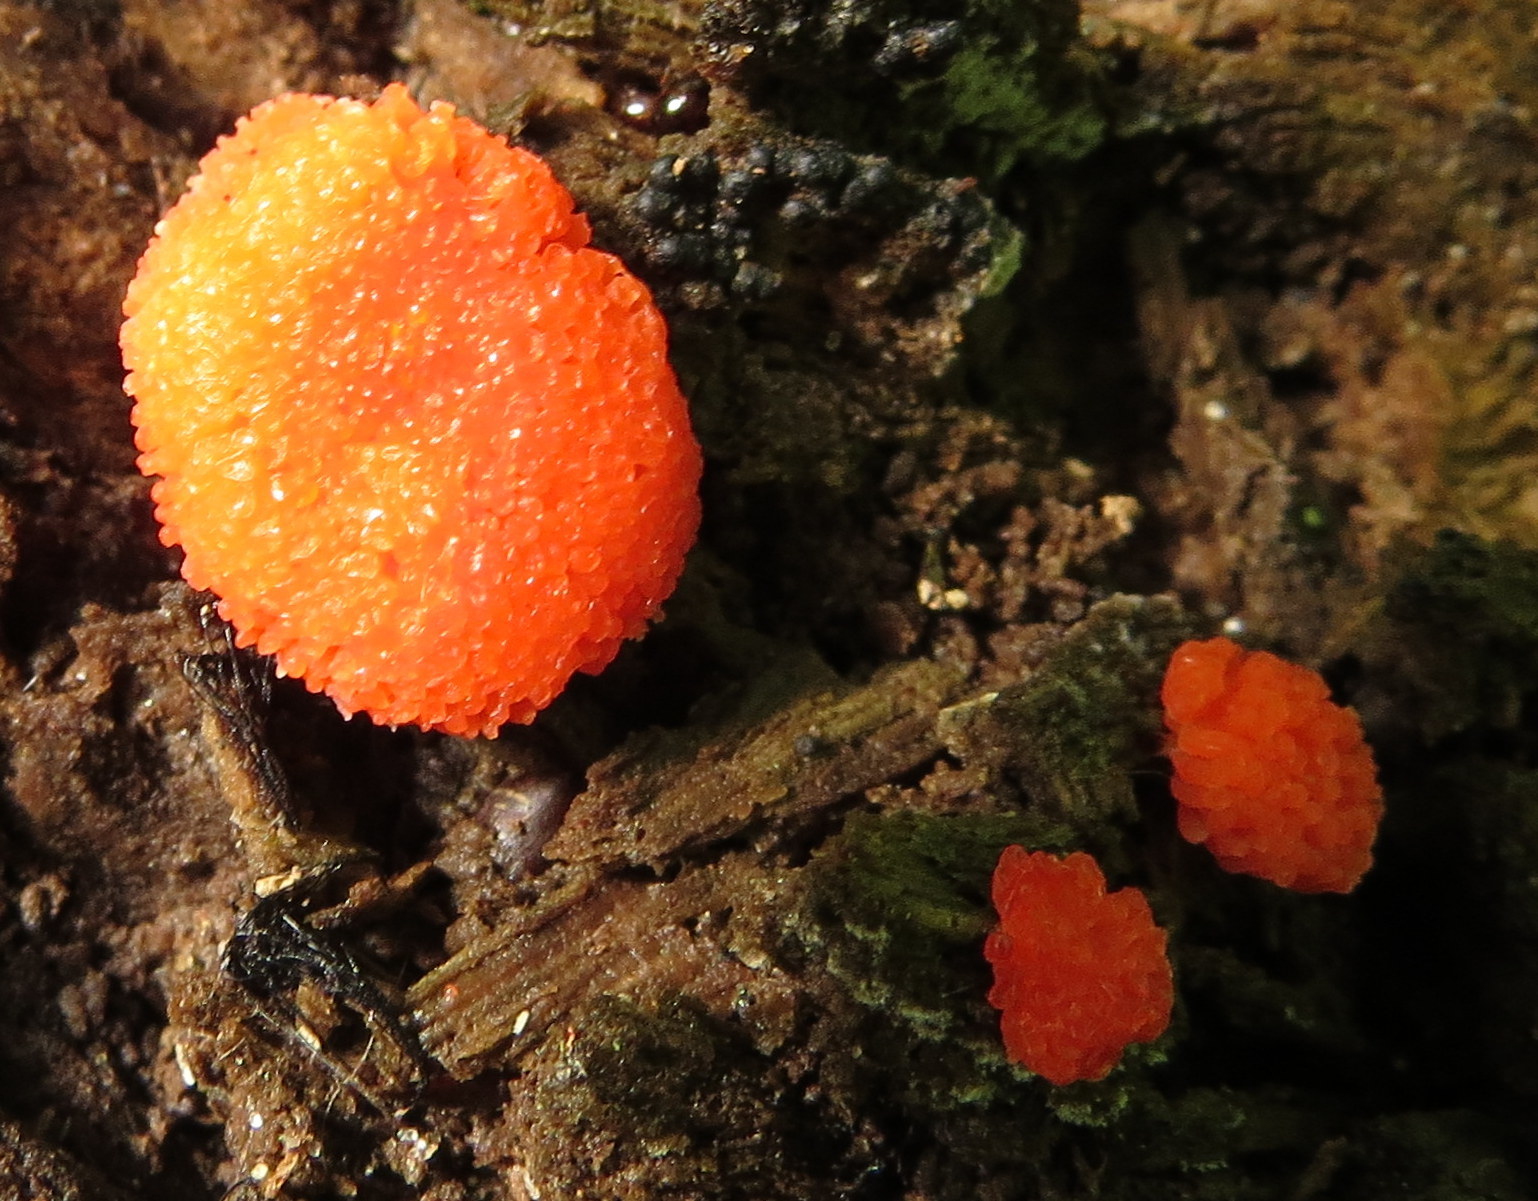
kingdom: Protozoa
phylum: Mycetozoa
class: Myxomycetes
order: Cribrariales
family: Tubiferaceae
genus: Tubifera
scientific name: Tubifera ferruginosa
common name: Red raspberry slime mold
